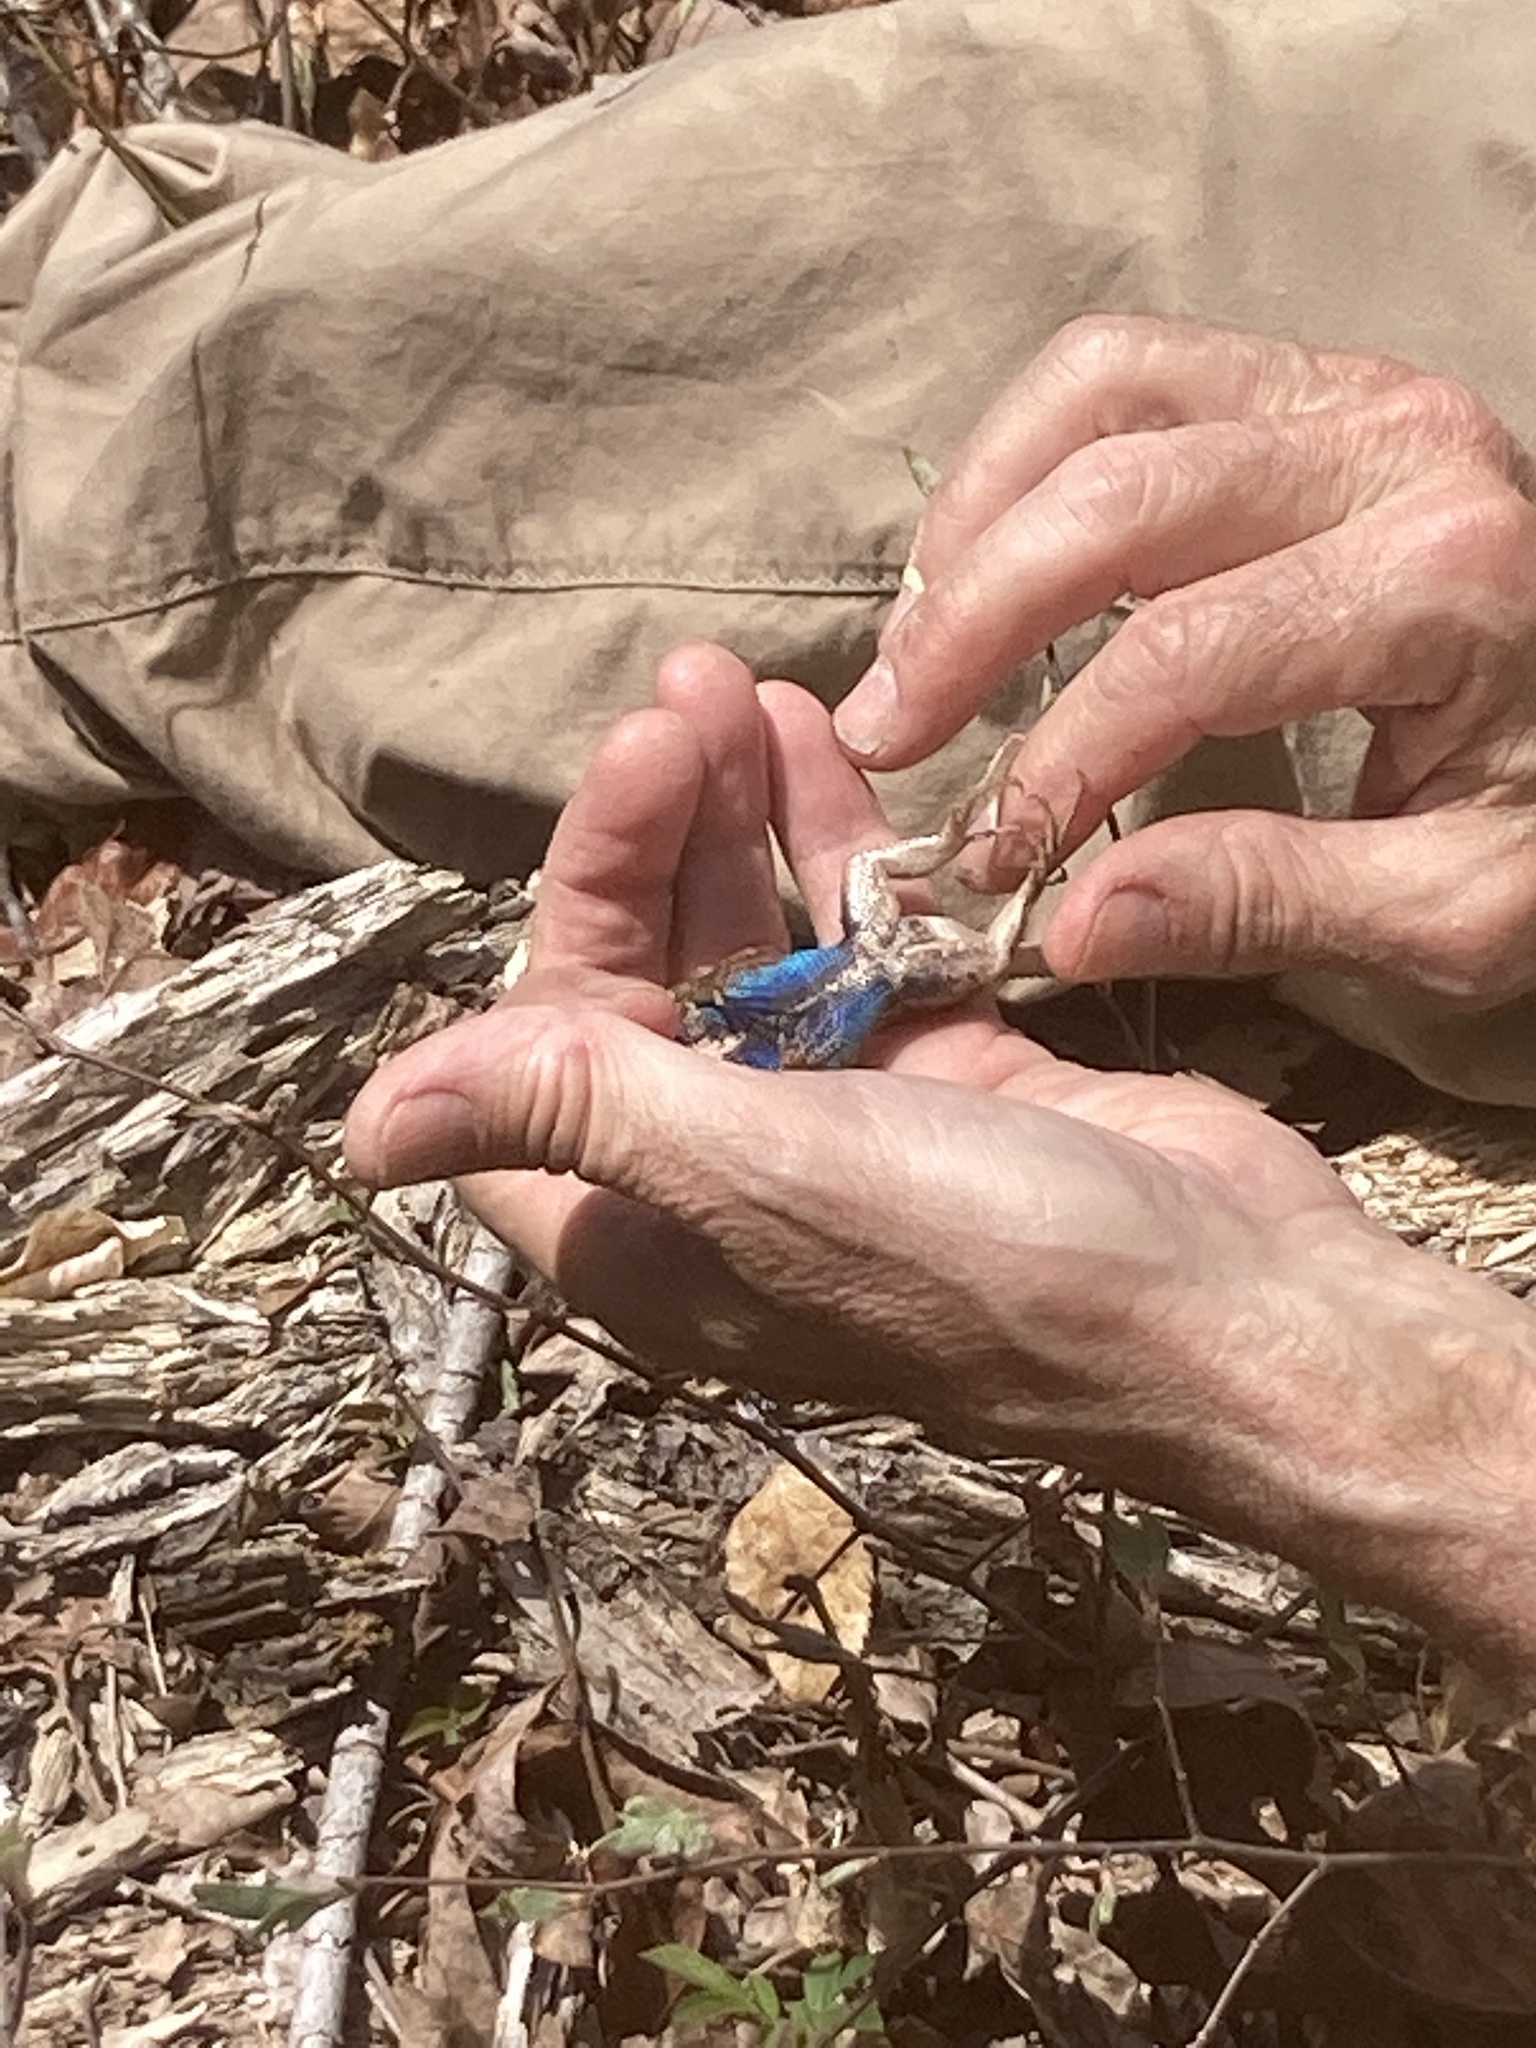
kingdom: Animalia
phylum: Chordata
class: Squamata
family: Phrynosomatidae
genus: Sceloporus
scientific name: Sceloporus undulatus
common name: Eastern fence lizard
